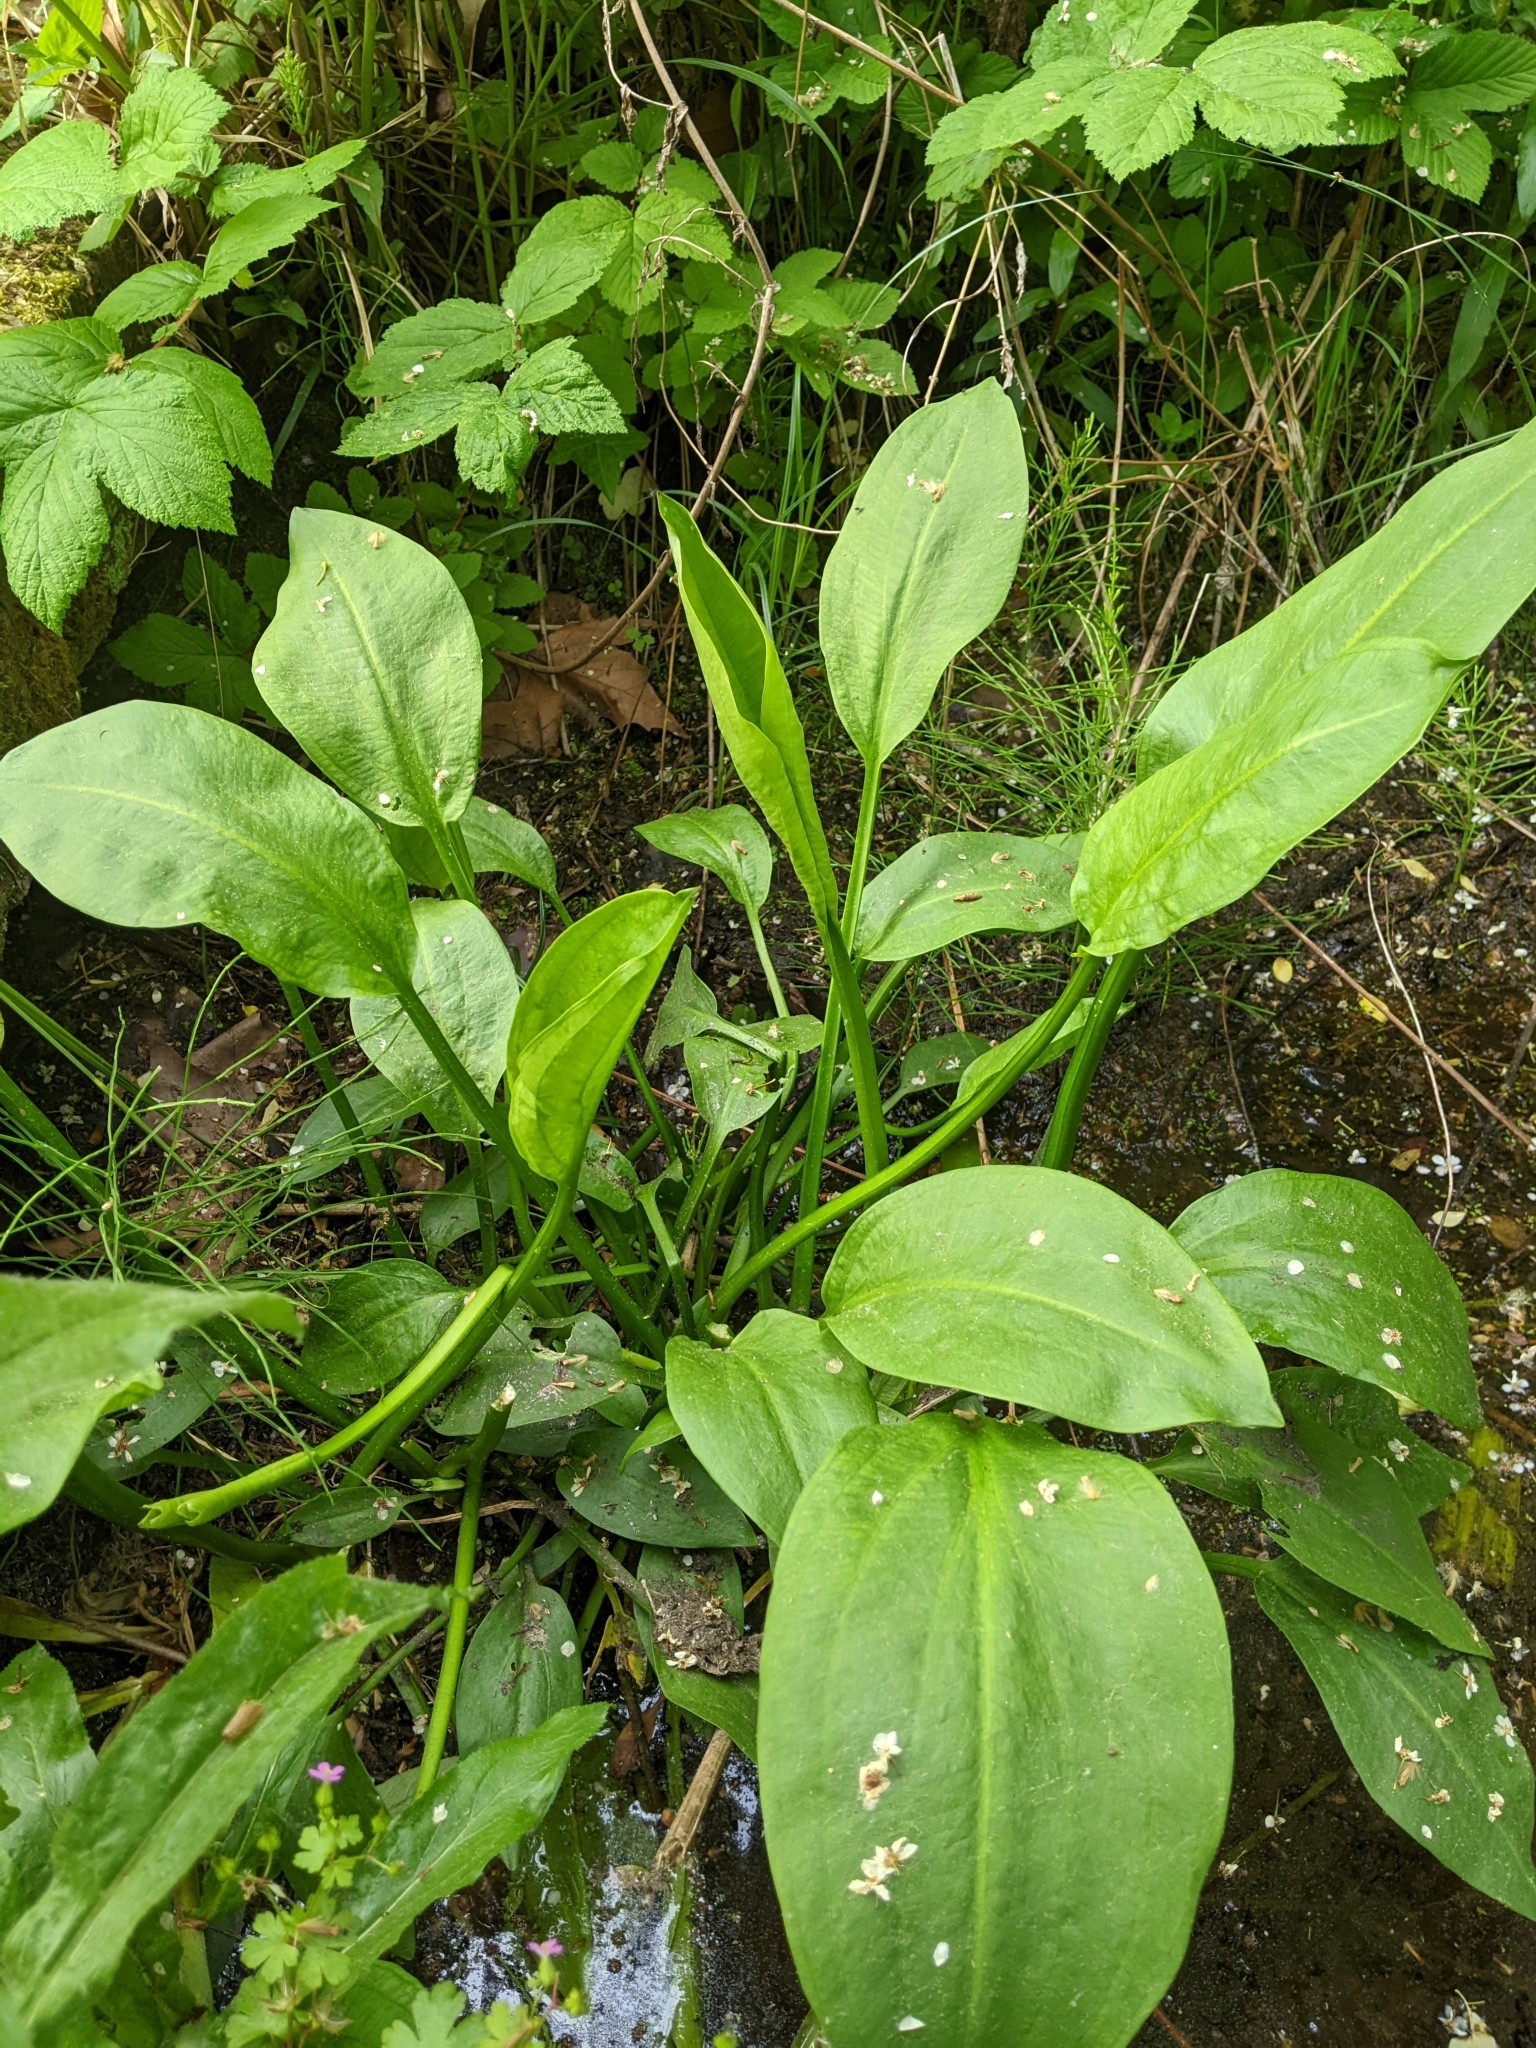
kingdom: Plantae
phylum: Tracheophyta
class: Liliopsida
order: Alismatales
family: Alismataceae
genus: Alisma
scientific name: Alisma plantago-aquatica
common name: Water-plantain
